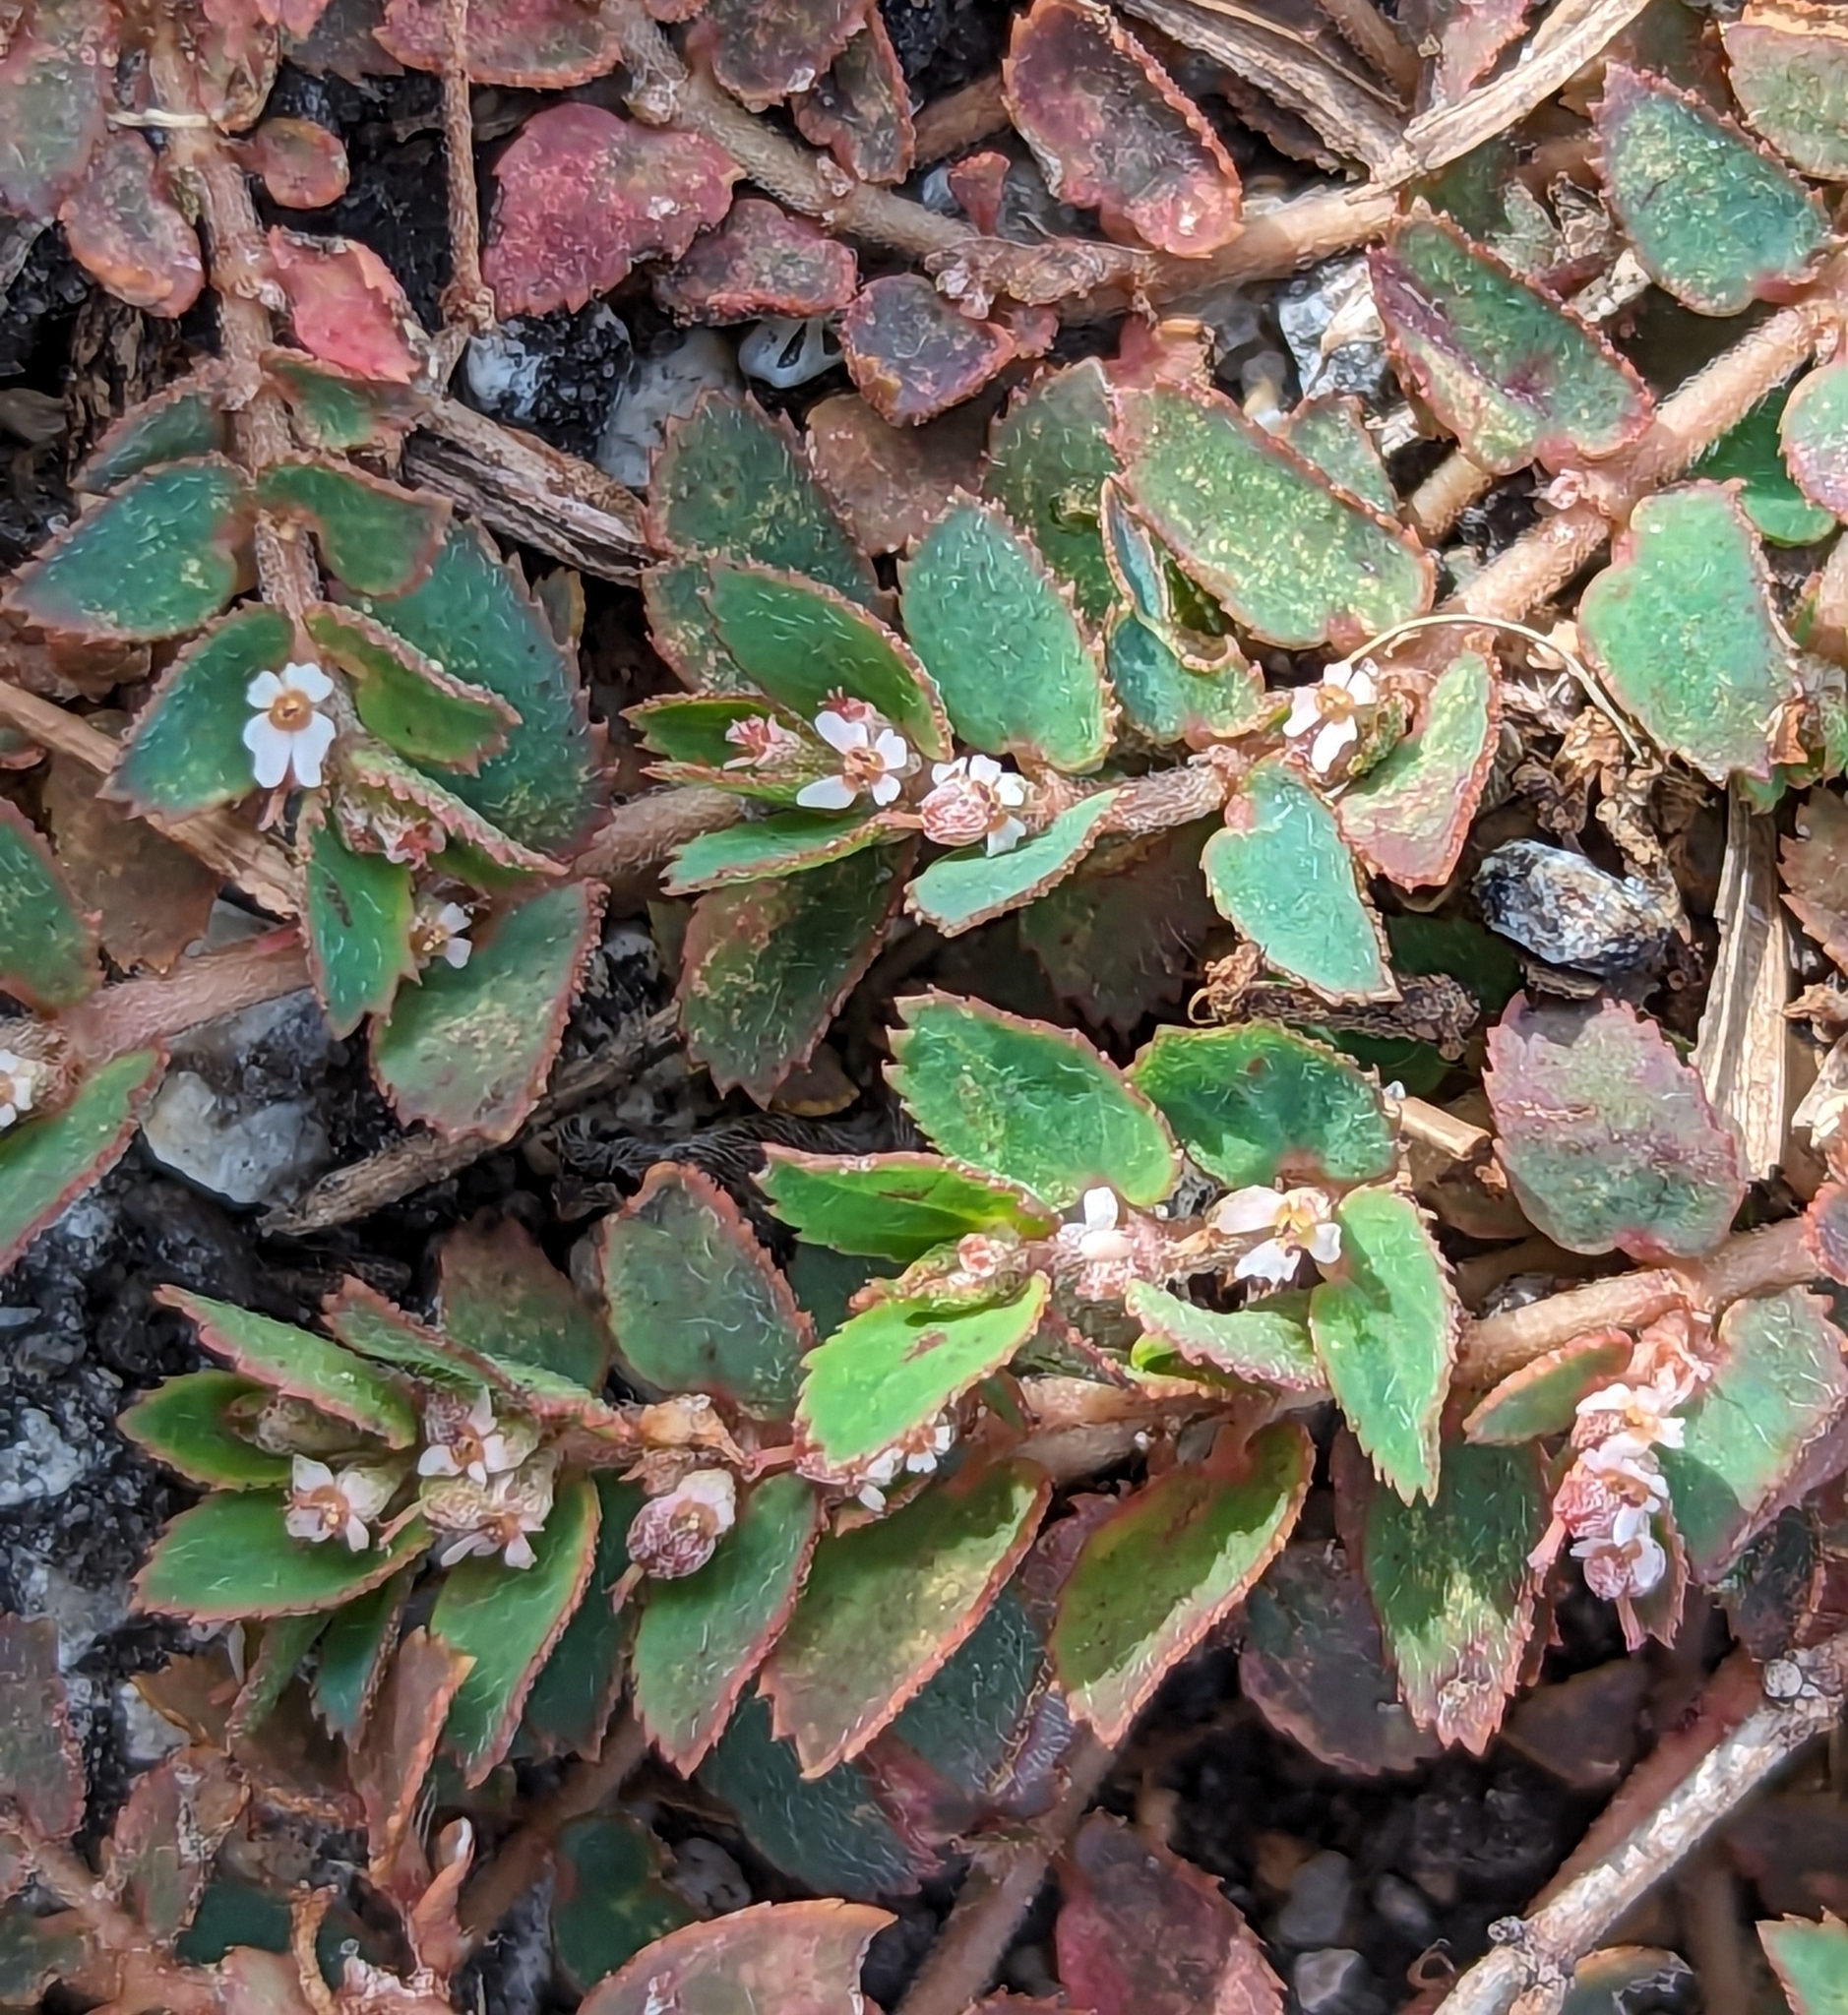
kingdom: Plantae
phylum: Tracheophyta
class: Magnoliopsida
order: Malpighiales
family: Euphorbiaceae
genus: Euphorbia
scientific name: Euphorbia thymifolia
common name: Gulf sandmat
